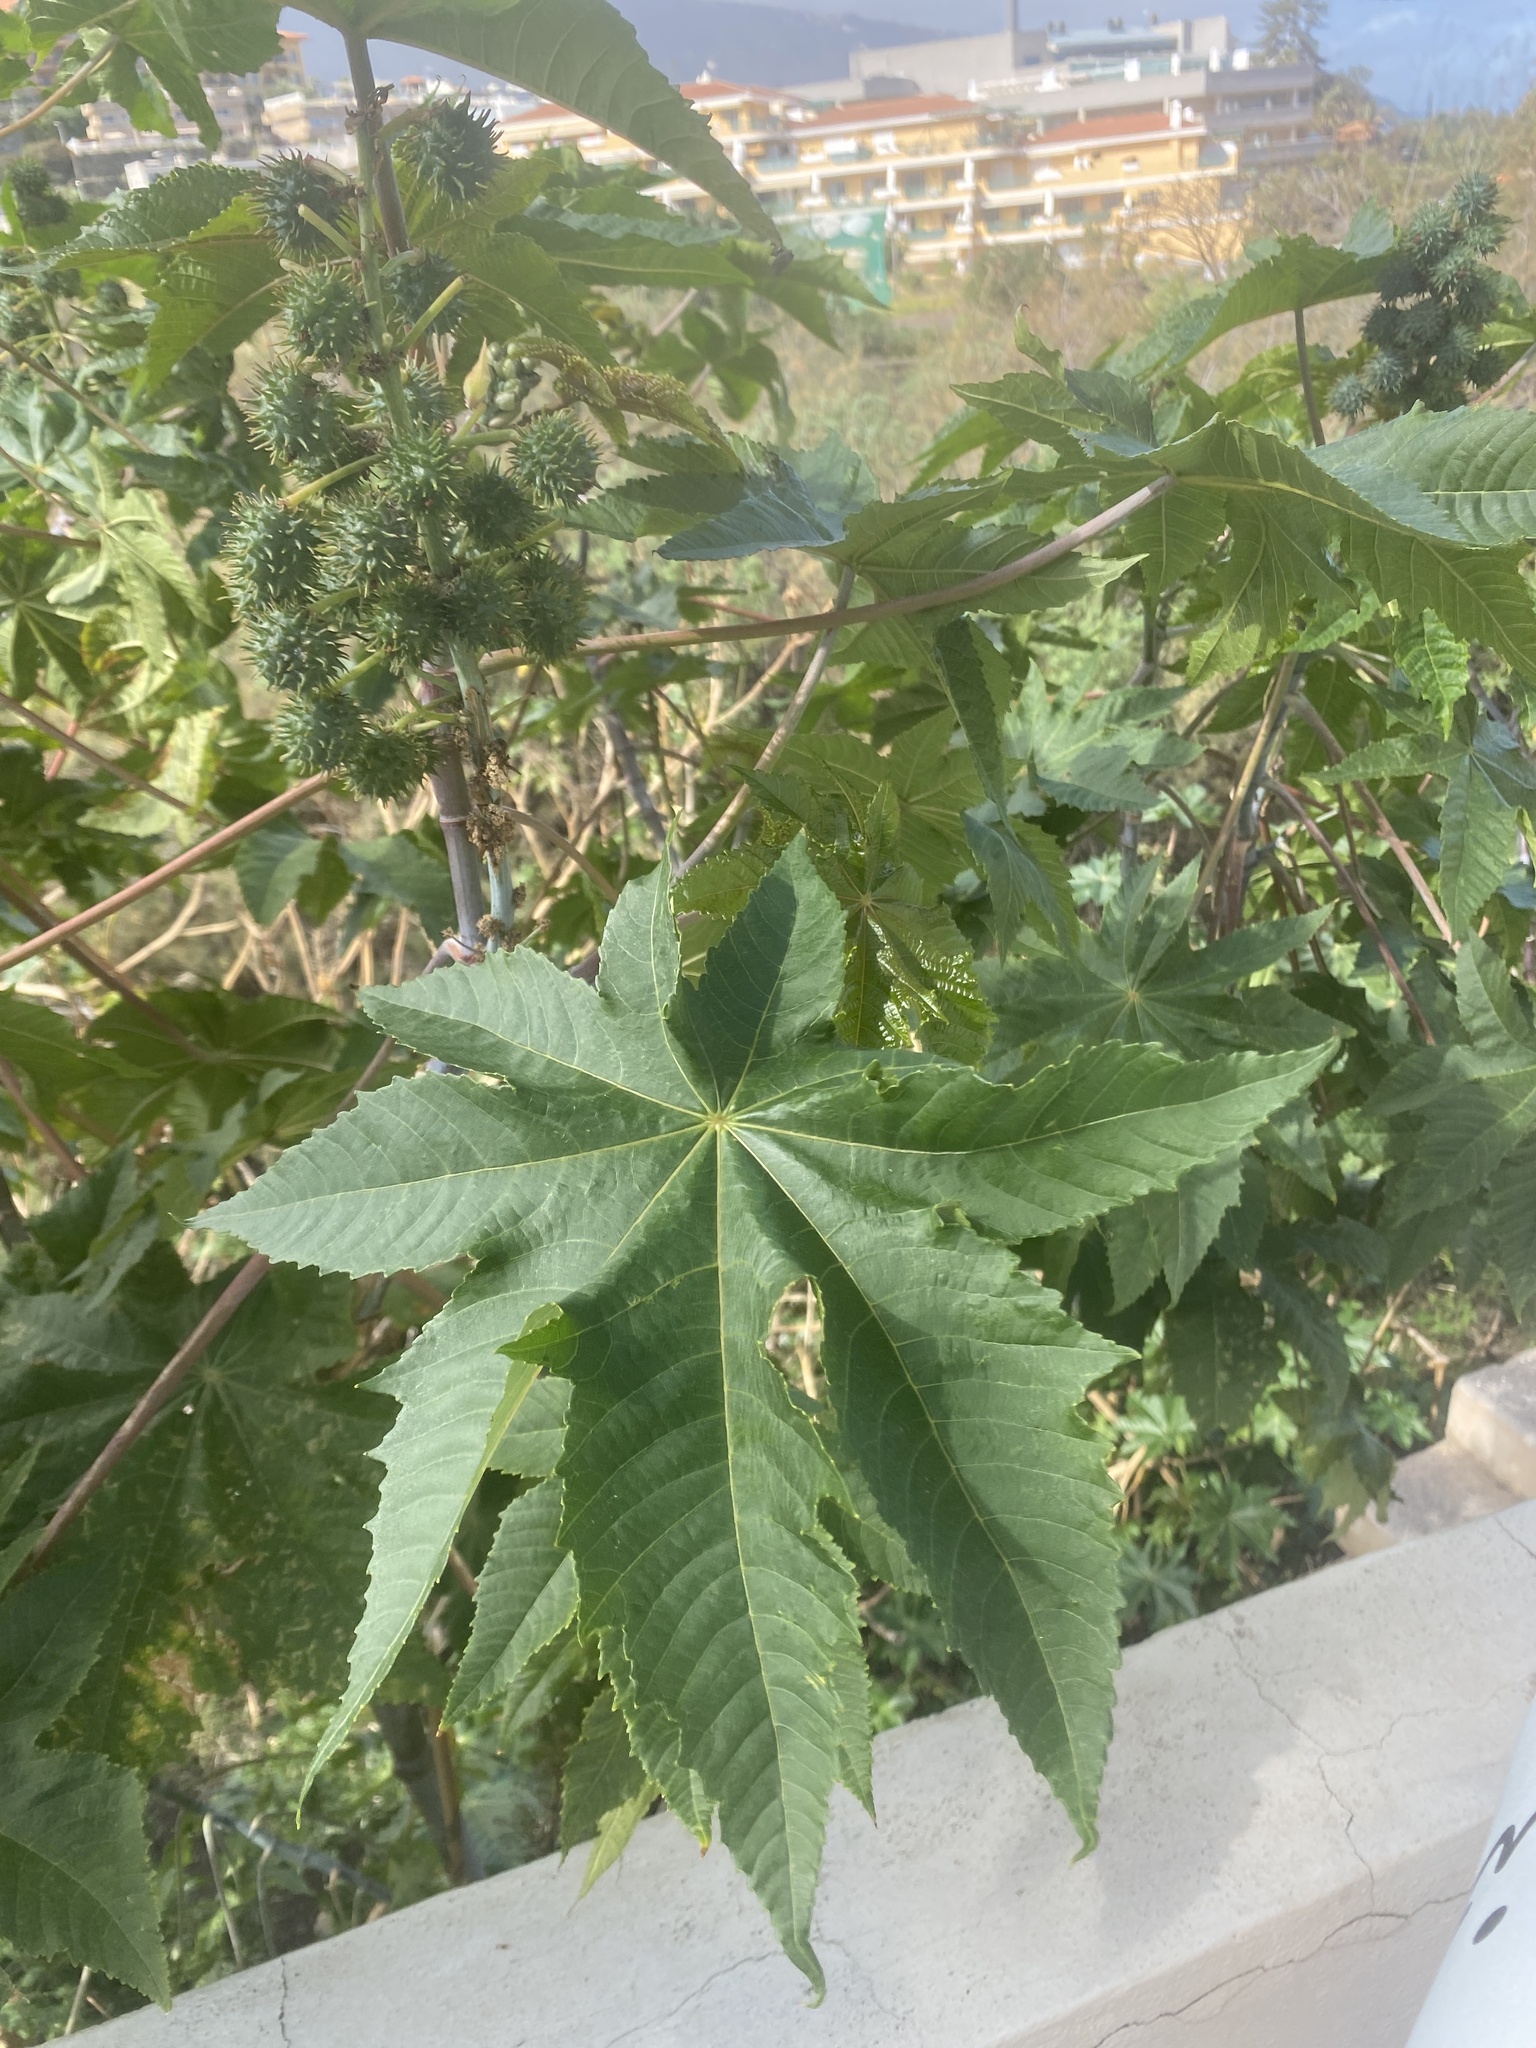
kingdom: Plantae
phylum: Tracheophyta
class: Magnoliopsida
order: Malpighiales
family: Euphorbiaceae
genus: Ricinus
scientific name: Ricinus communis
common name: Castor-oil-plant
